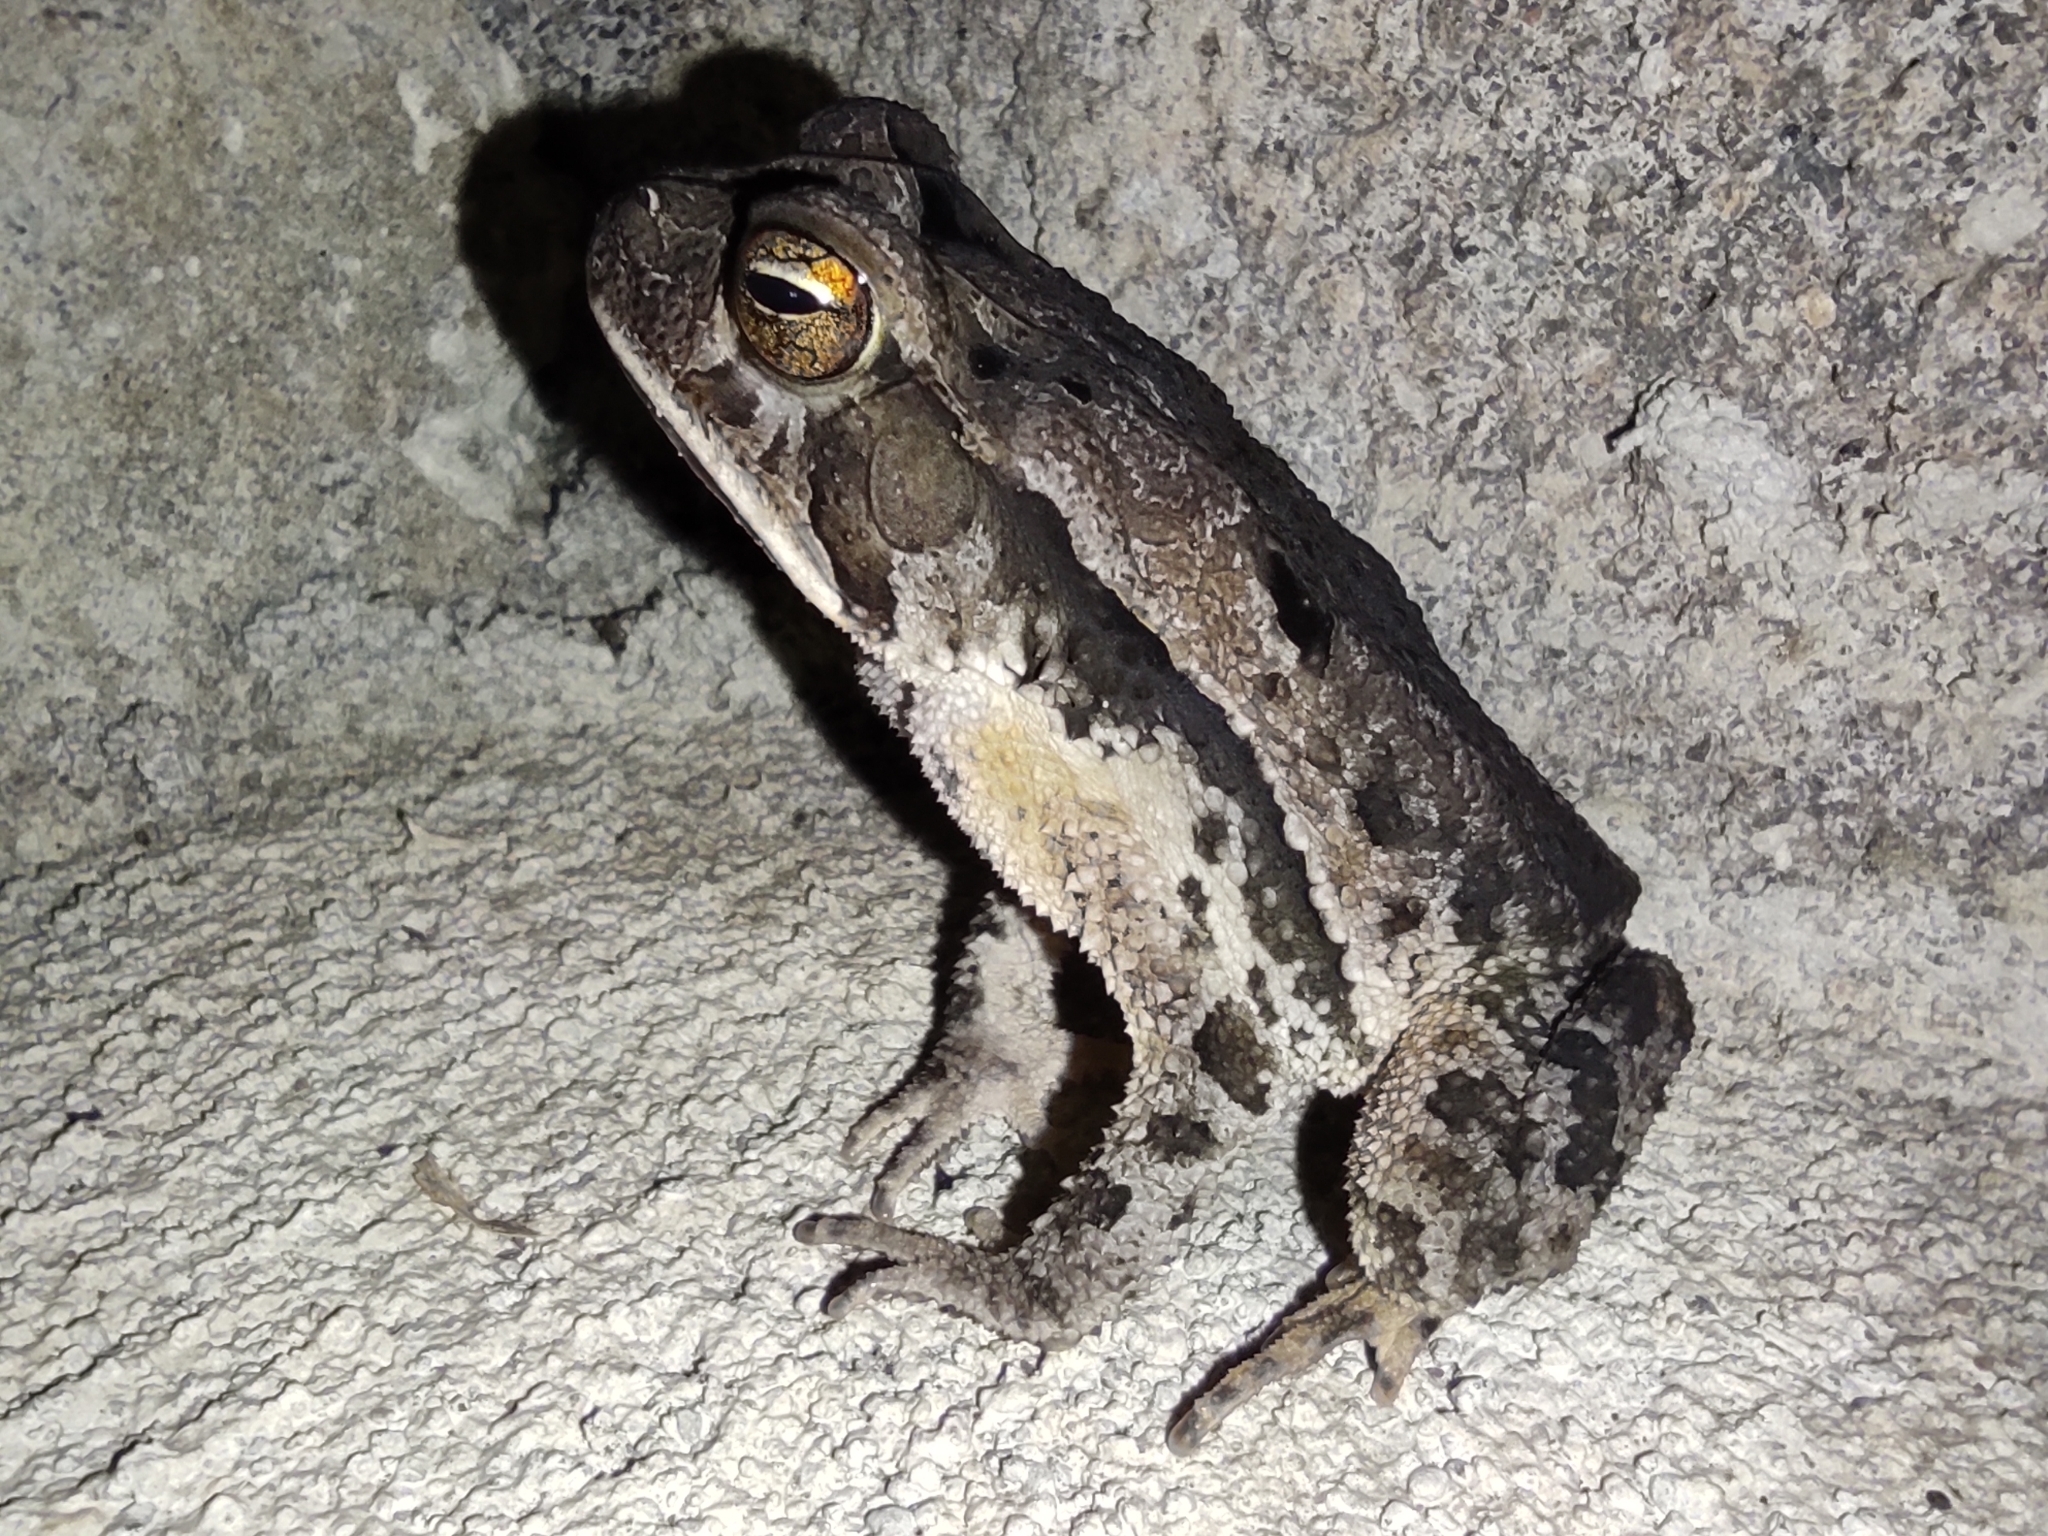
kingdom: Animalia
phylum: Chordata
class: Amphibia
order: Anura
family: Bufonidae
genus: Incilius
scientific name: Incilius melanochlorus
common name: Dark green toad
